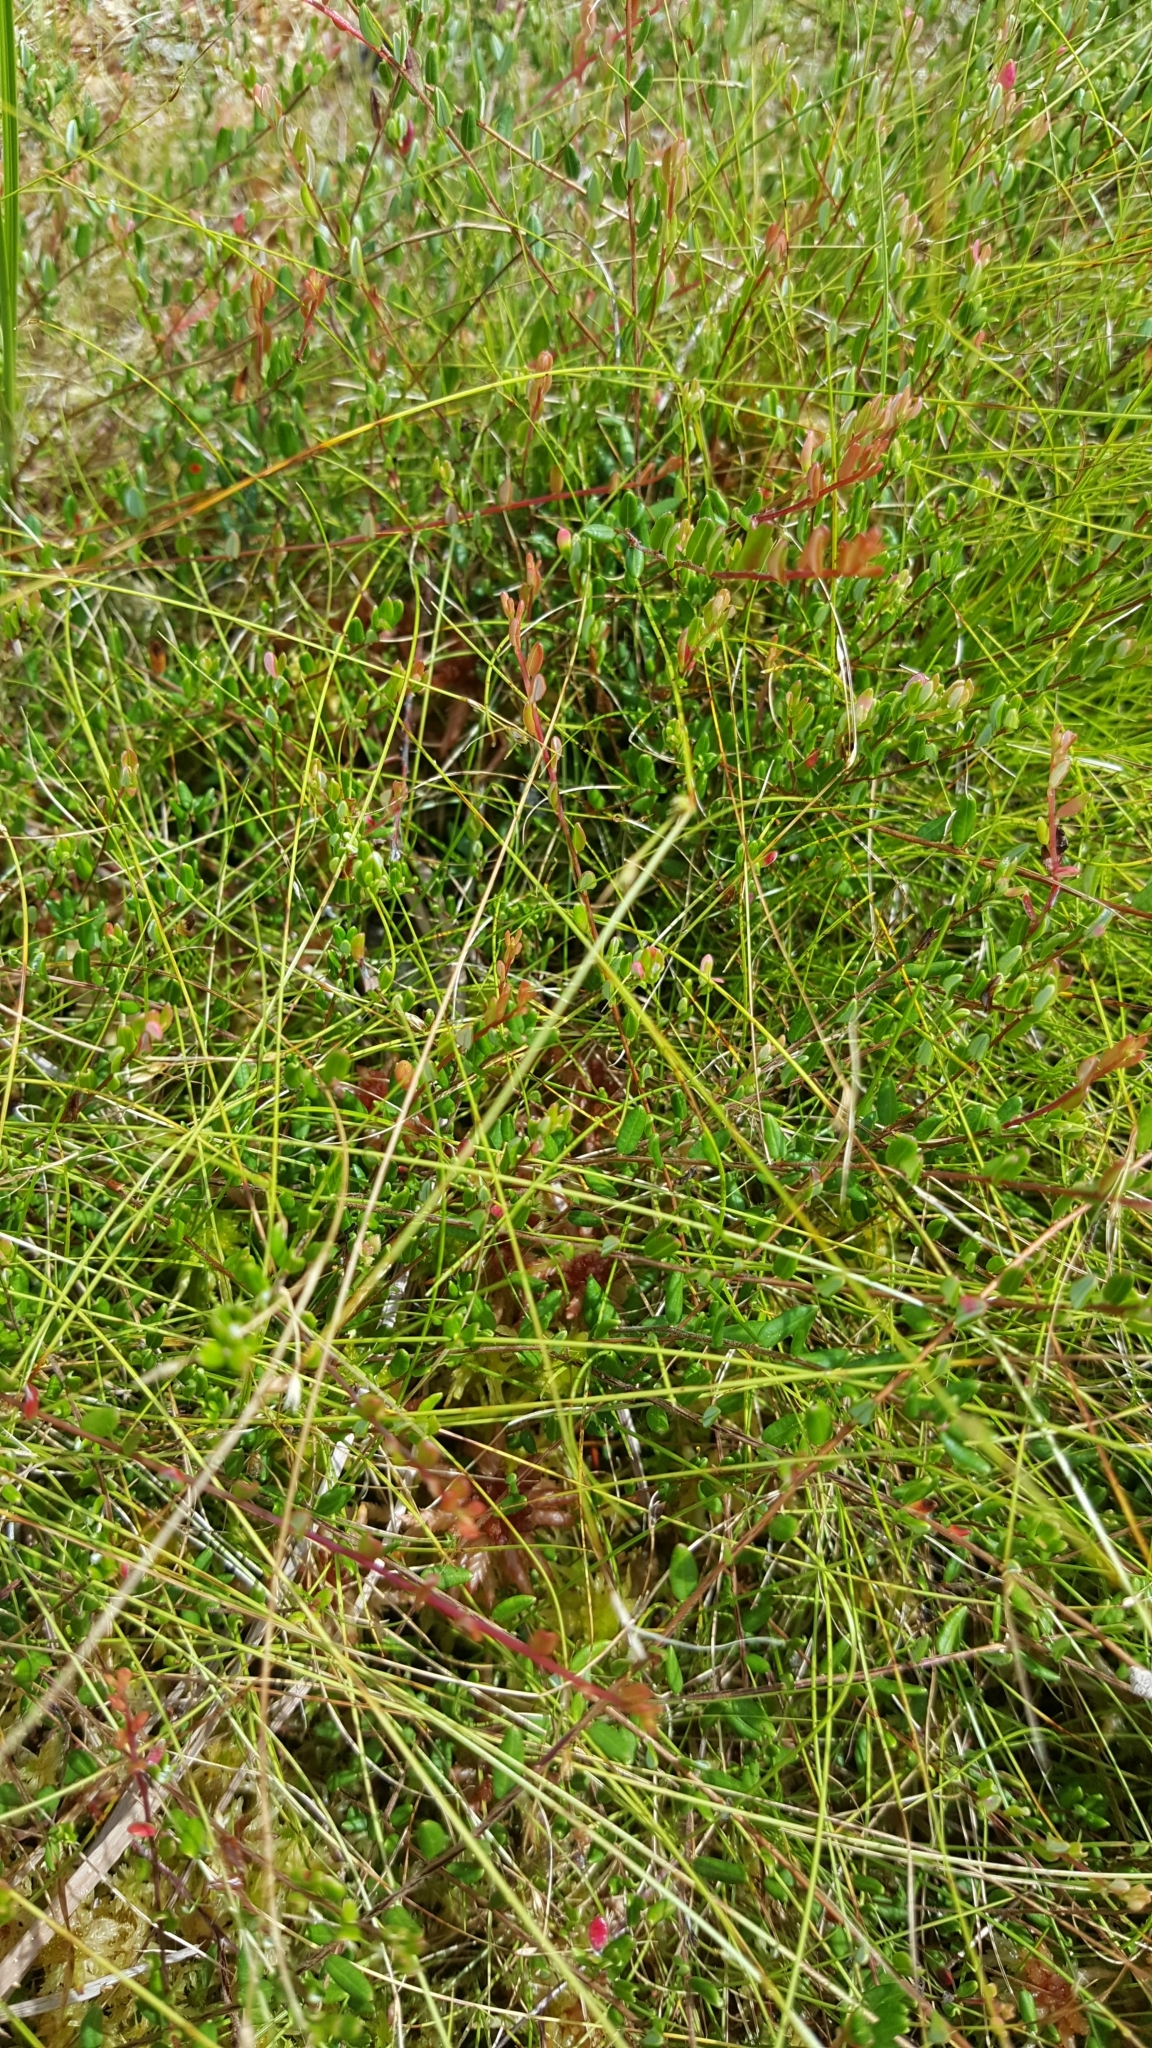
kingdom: Plantae
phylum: Tracheophyta
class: Magnoliopsida
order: Ericales
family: Ericaceae
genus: Vaccinium
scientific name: Vaccinium oxycoccos
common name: Cranberry
